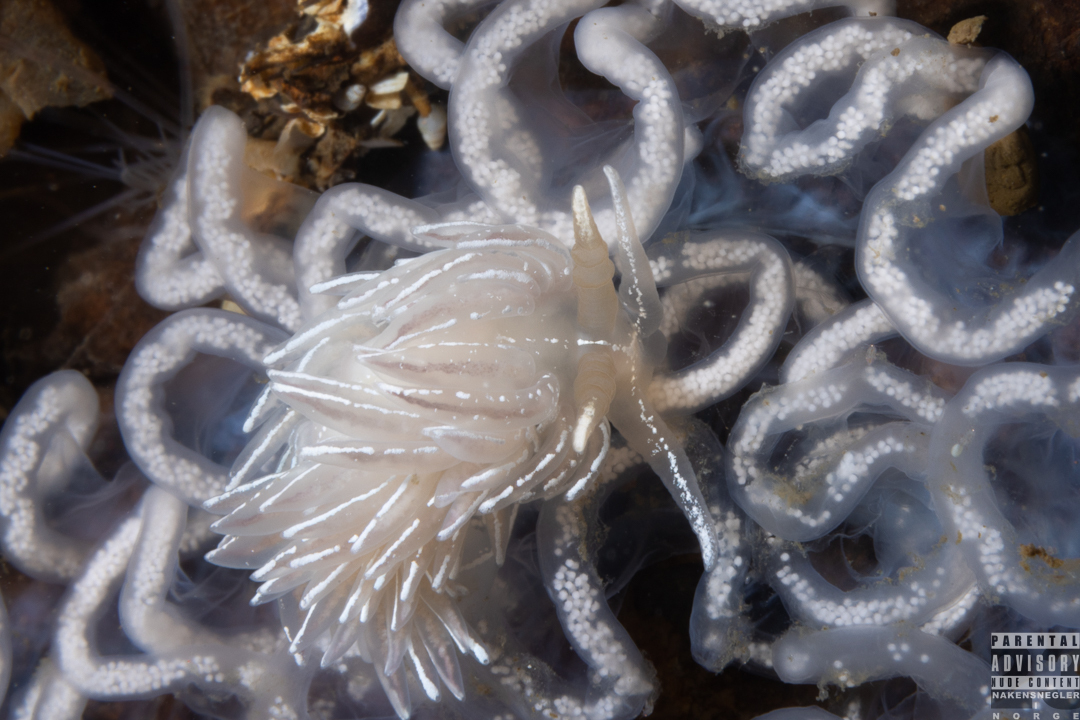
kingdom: Animalia
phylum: Mollusca
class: Gastropoda
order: Nudibranchia
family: Facelinidae
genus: Favorinus
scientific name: Favorinus blianus
